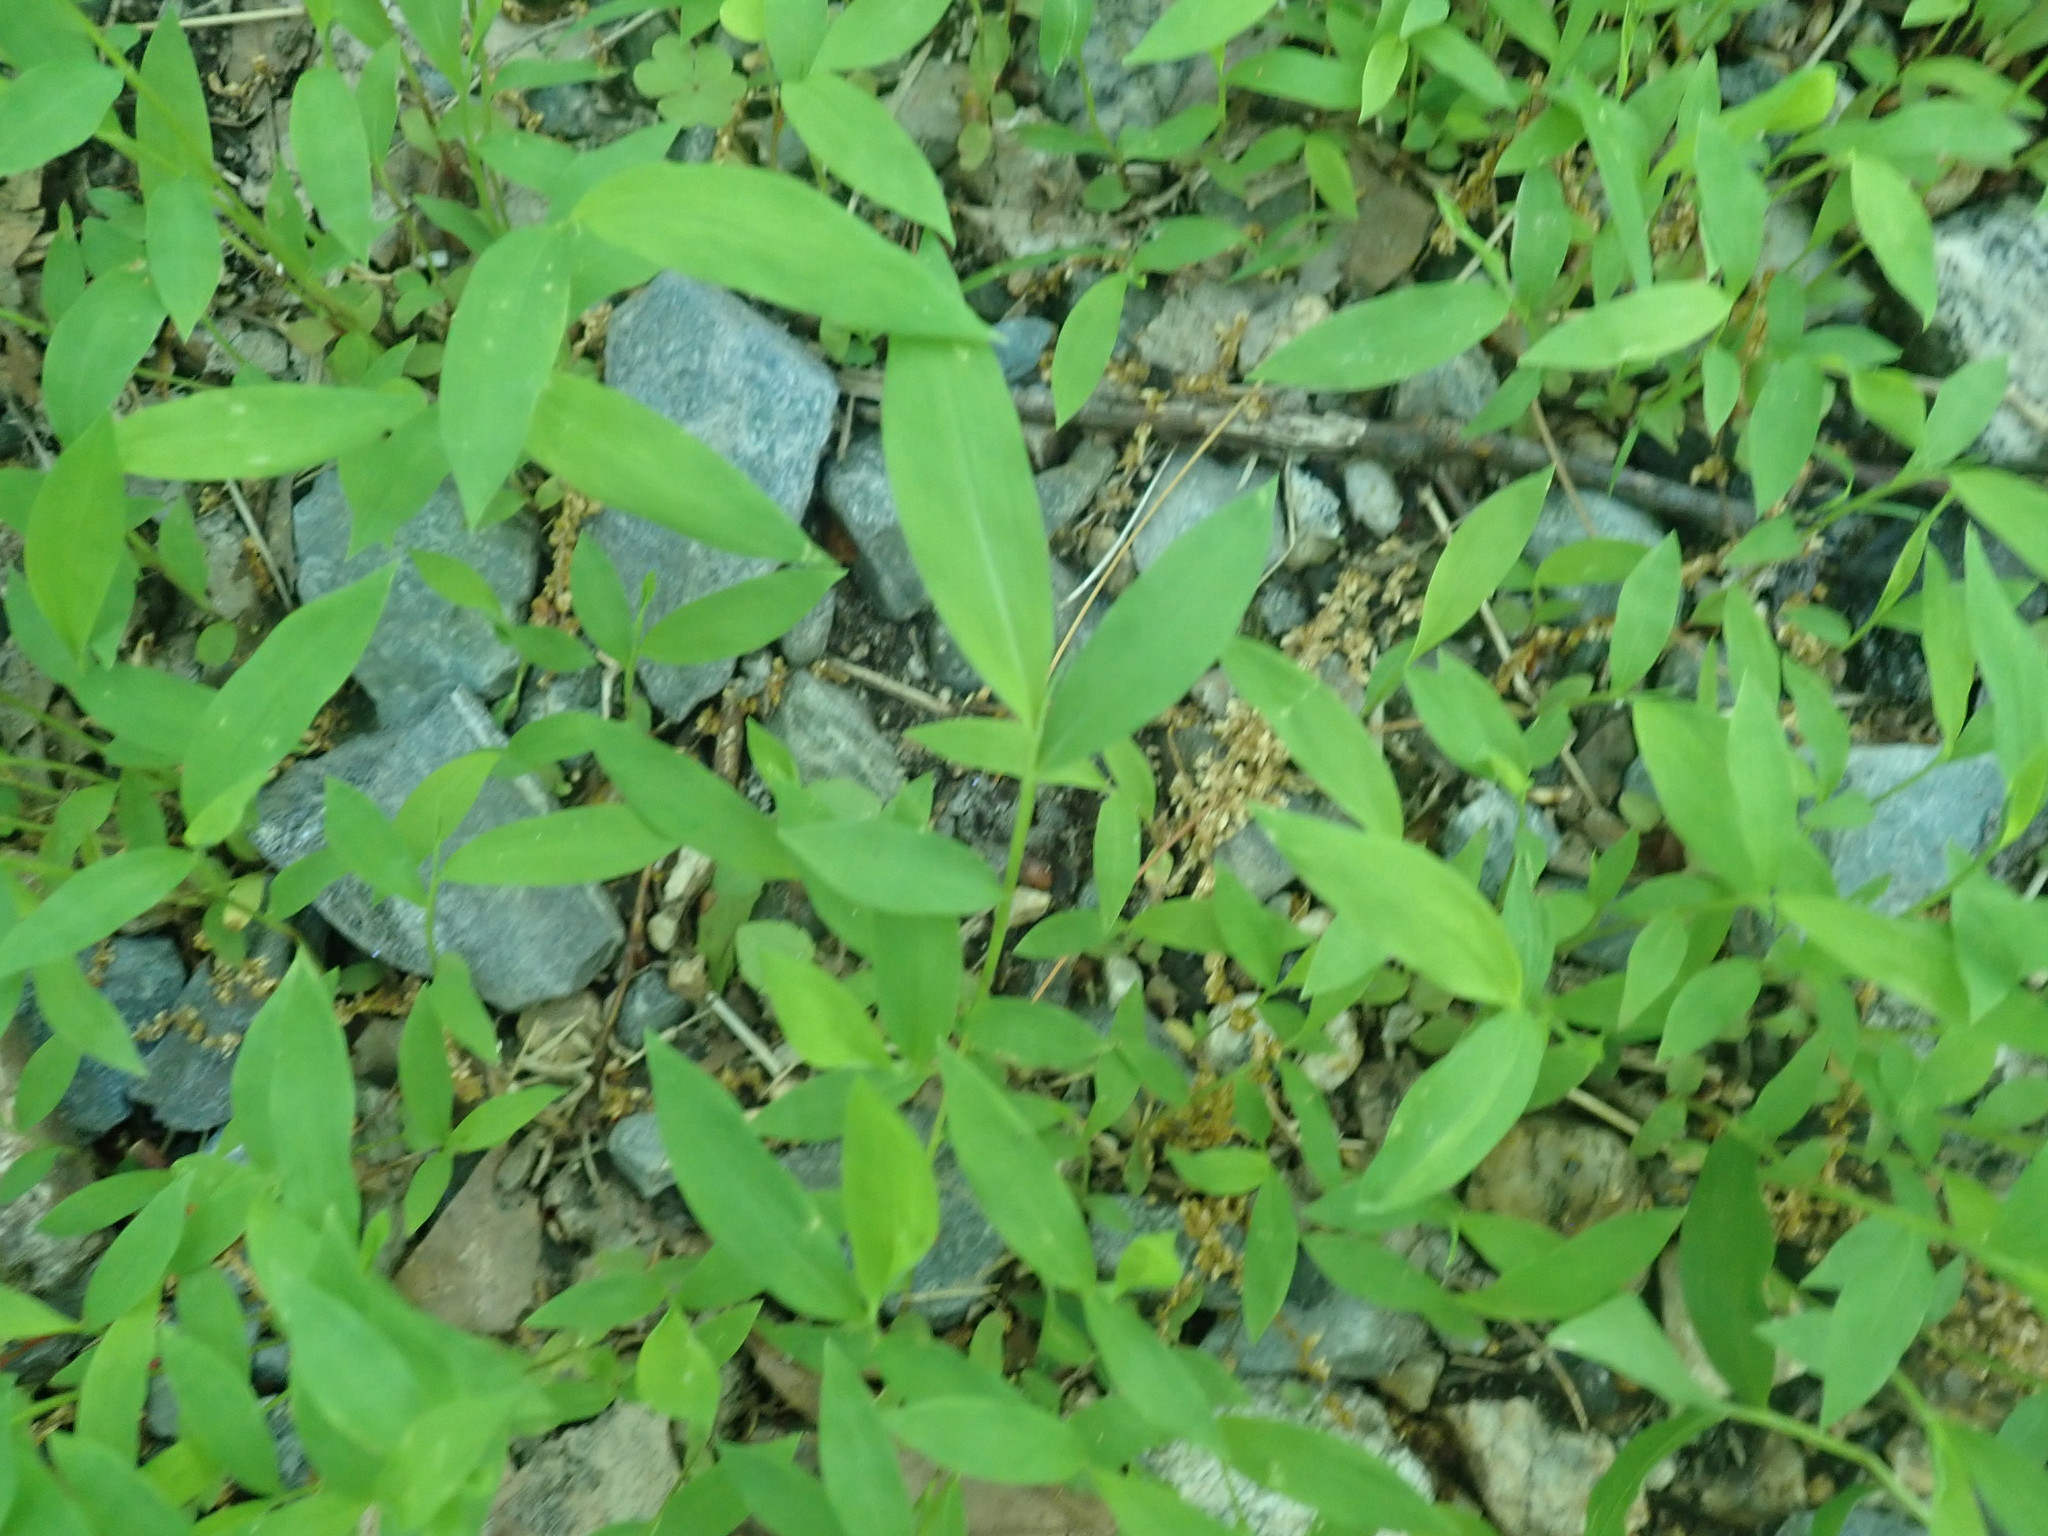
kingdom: Plantae
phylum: Tracheophyta
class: Liliopsida
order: Poales
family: Poaceae
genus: Microstegium
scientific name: Microstegium vimineum
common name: Japanese stiltgrass
